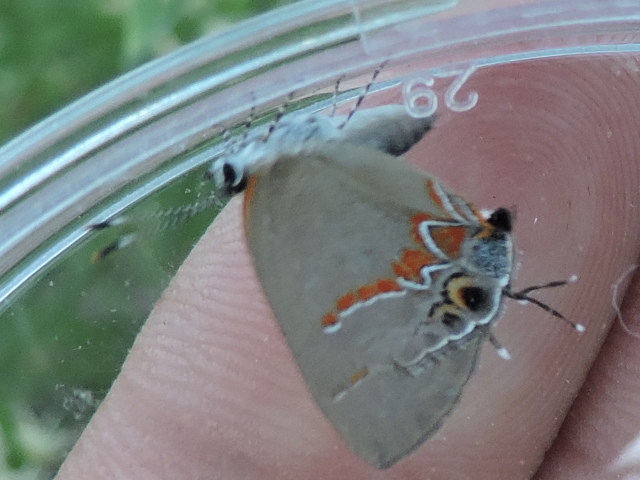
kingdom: Animalia
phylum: Arthropoda
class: Insecta
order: Lepidoptera
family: Lycaenidae
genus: Calycopis
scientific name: Calycopis cecrops
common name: Red-banded hairstreak
